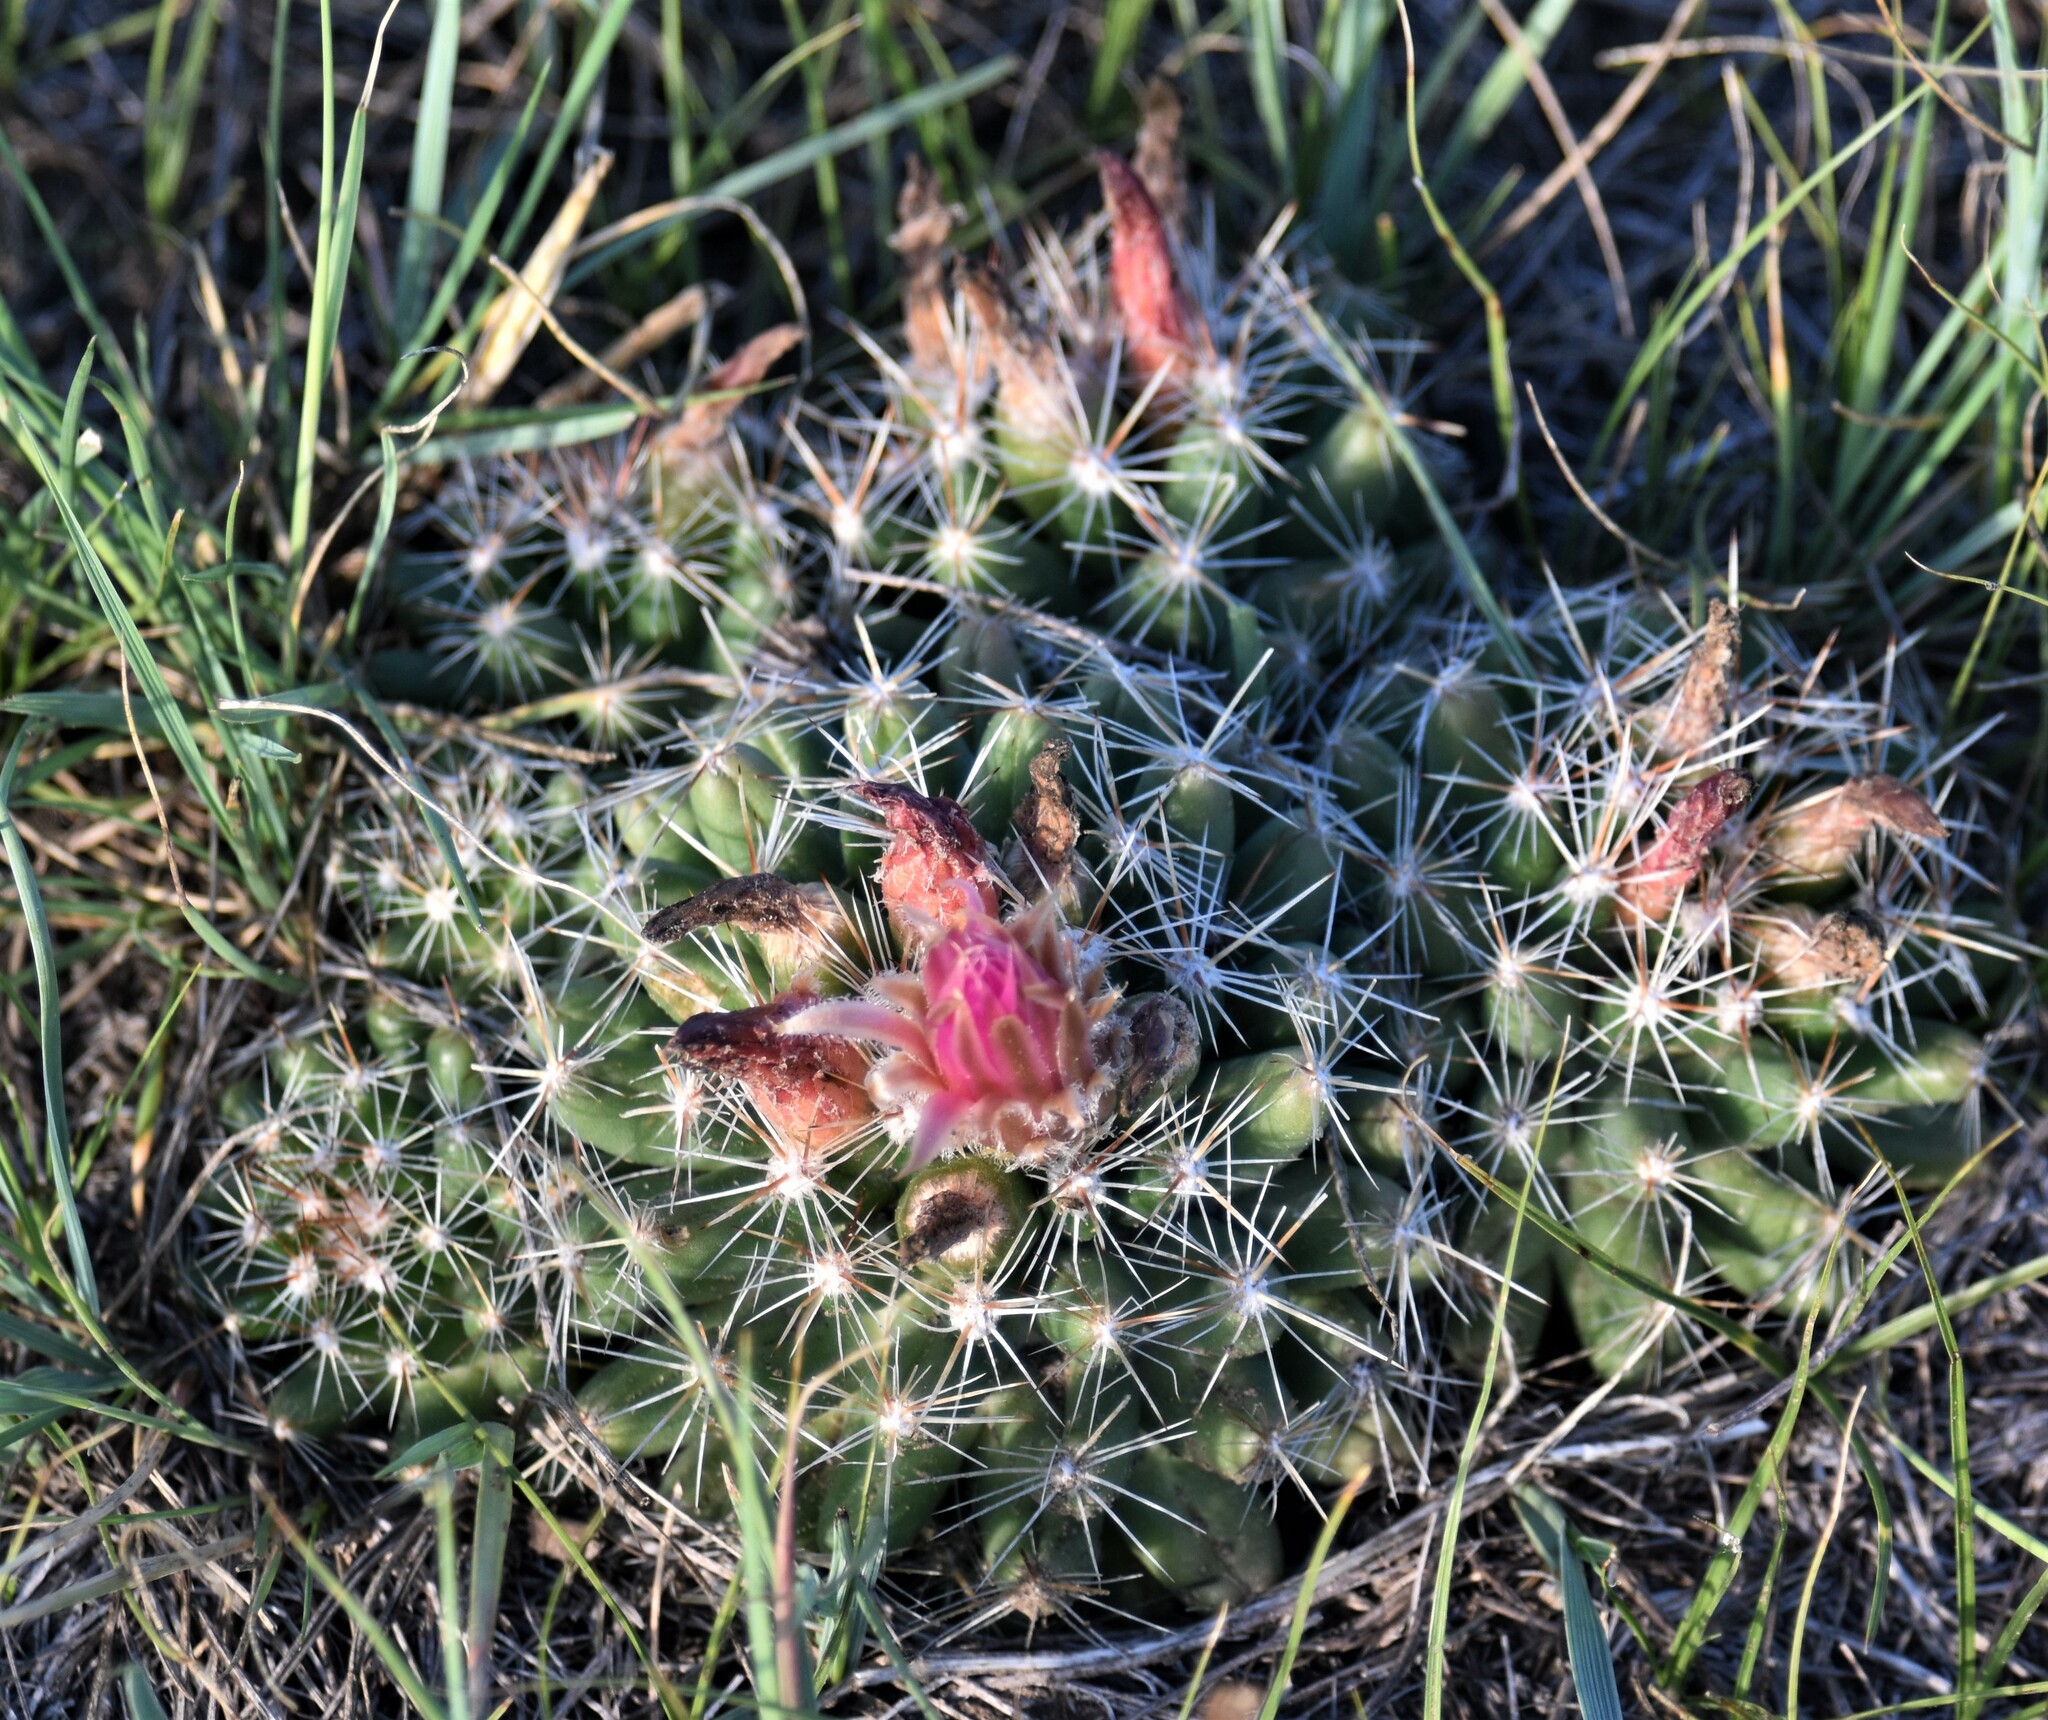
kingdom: Plantae
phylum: Tracheophyta
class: Magnoliopsida
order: Caryophyllales
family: Cactaceae
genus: Pelecyphora
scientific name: Pelecyphora vivipara
